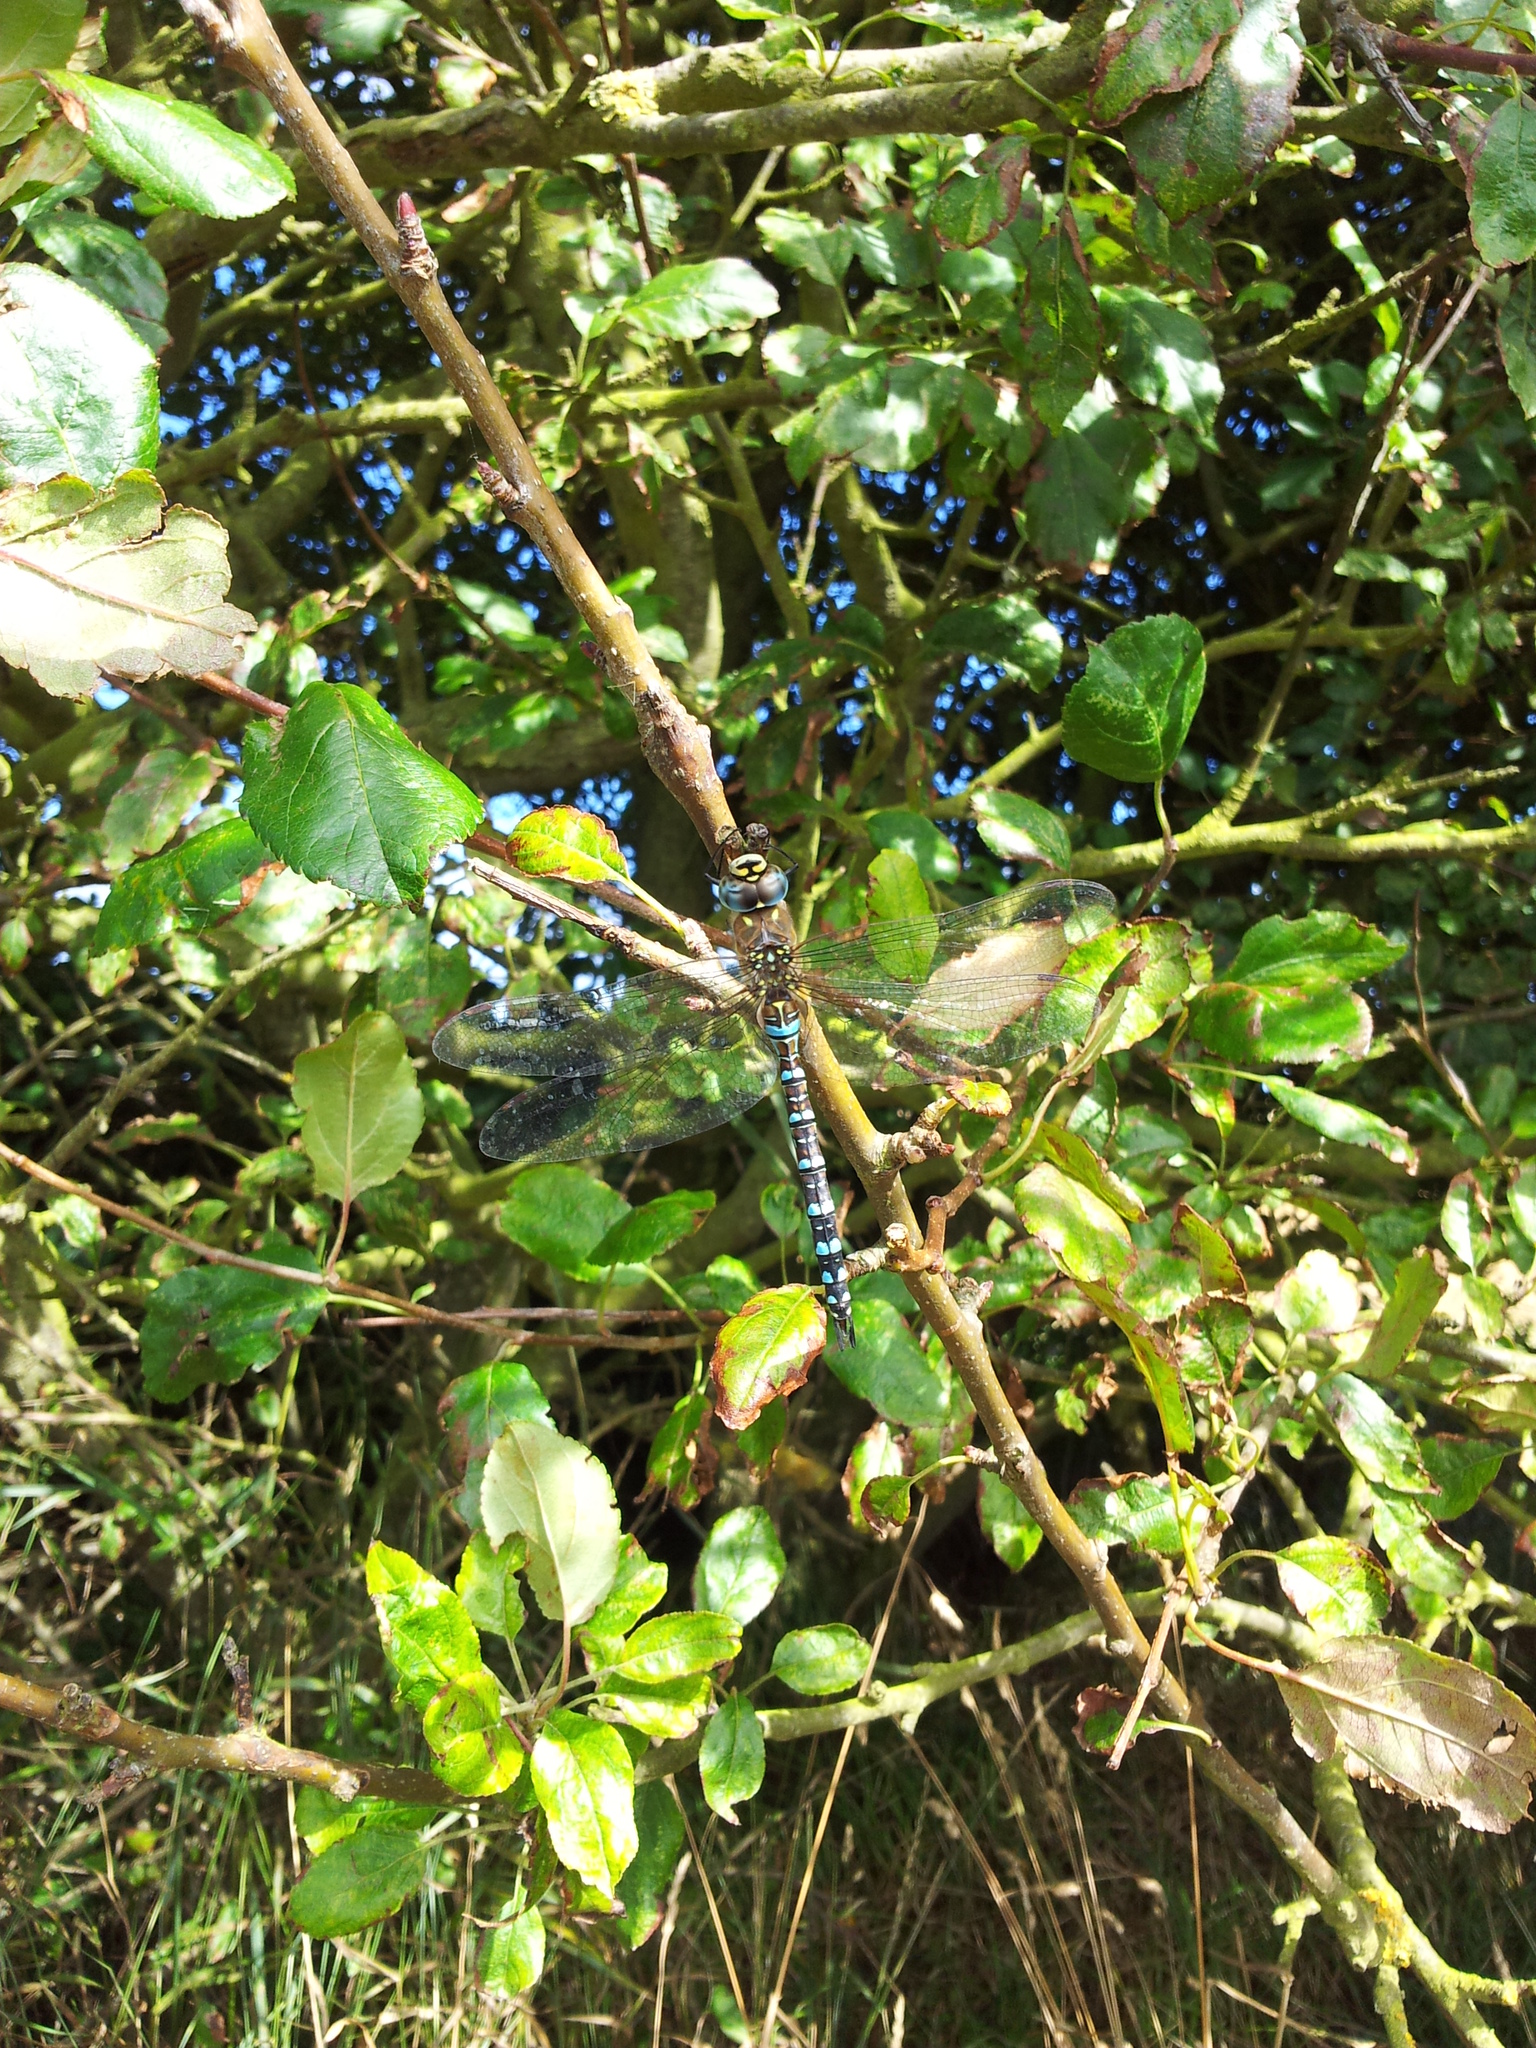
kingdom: Animalia
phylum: Arthropoda
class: Insecta
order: Odonata
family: Aeshnidae
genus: Aeshna
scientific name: Aeshna mixta
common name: Migrant hawker
